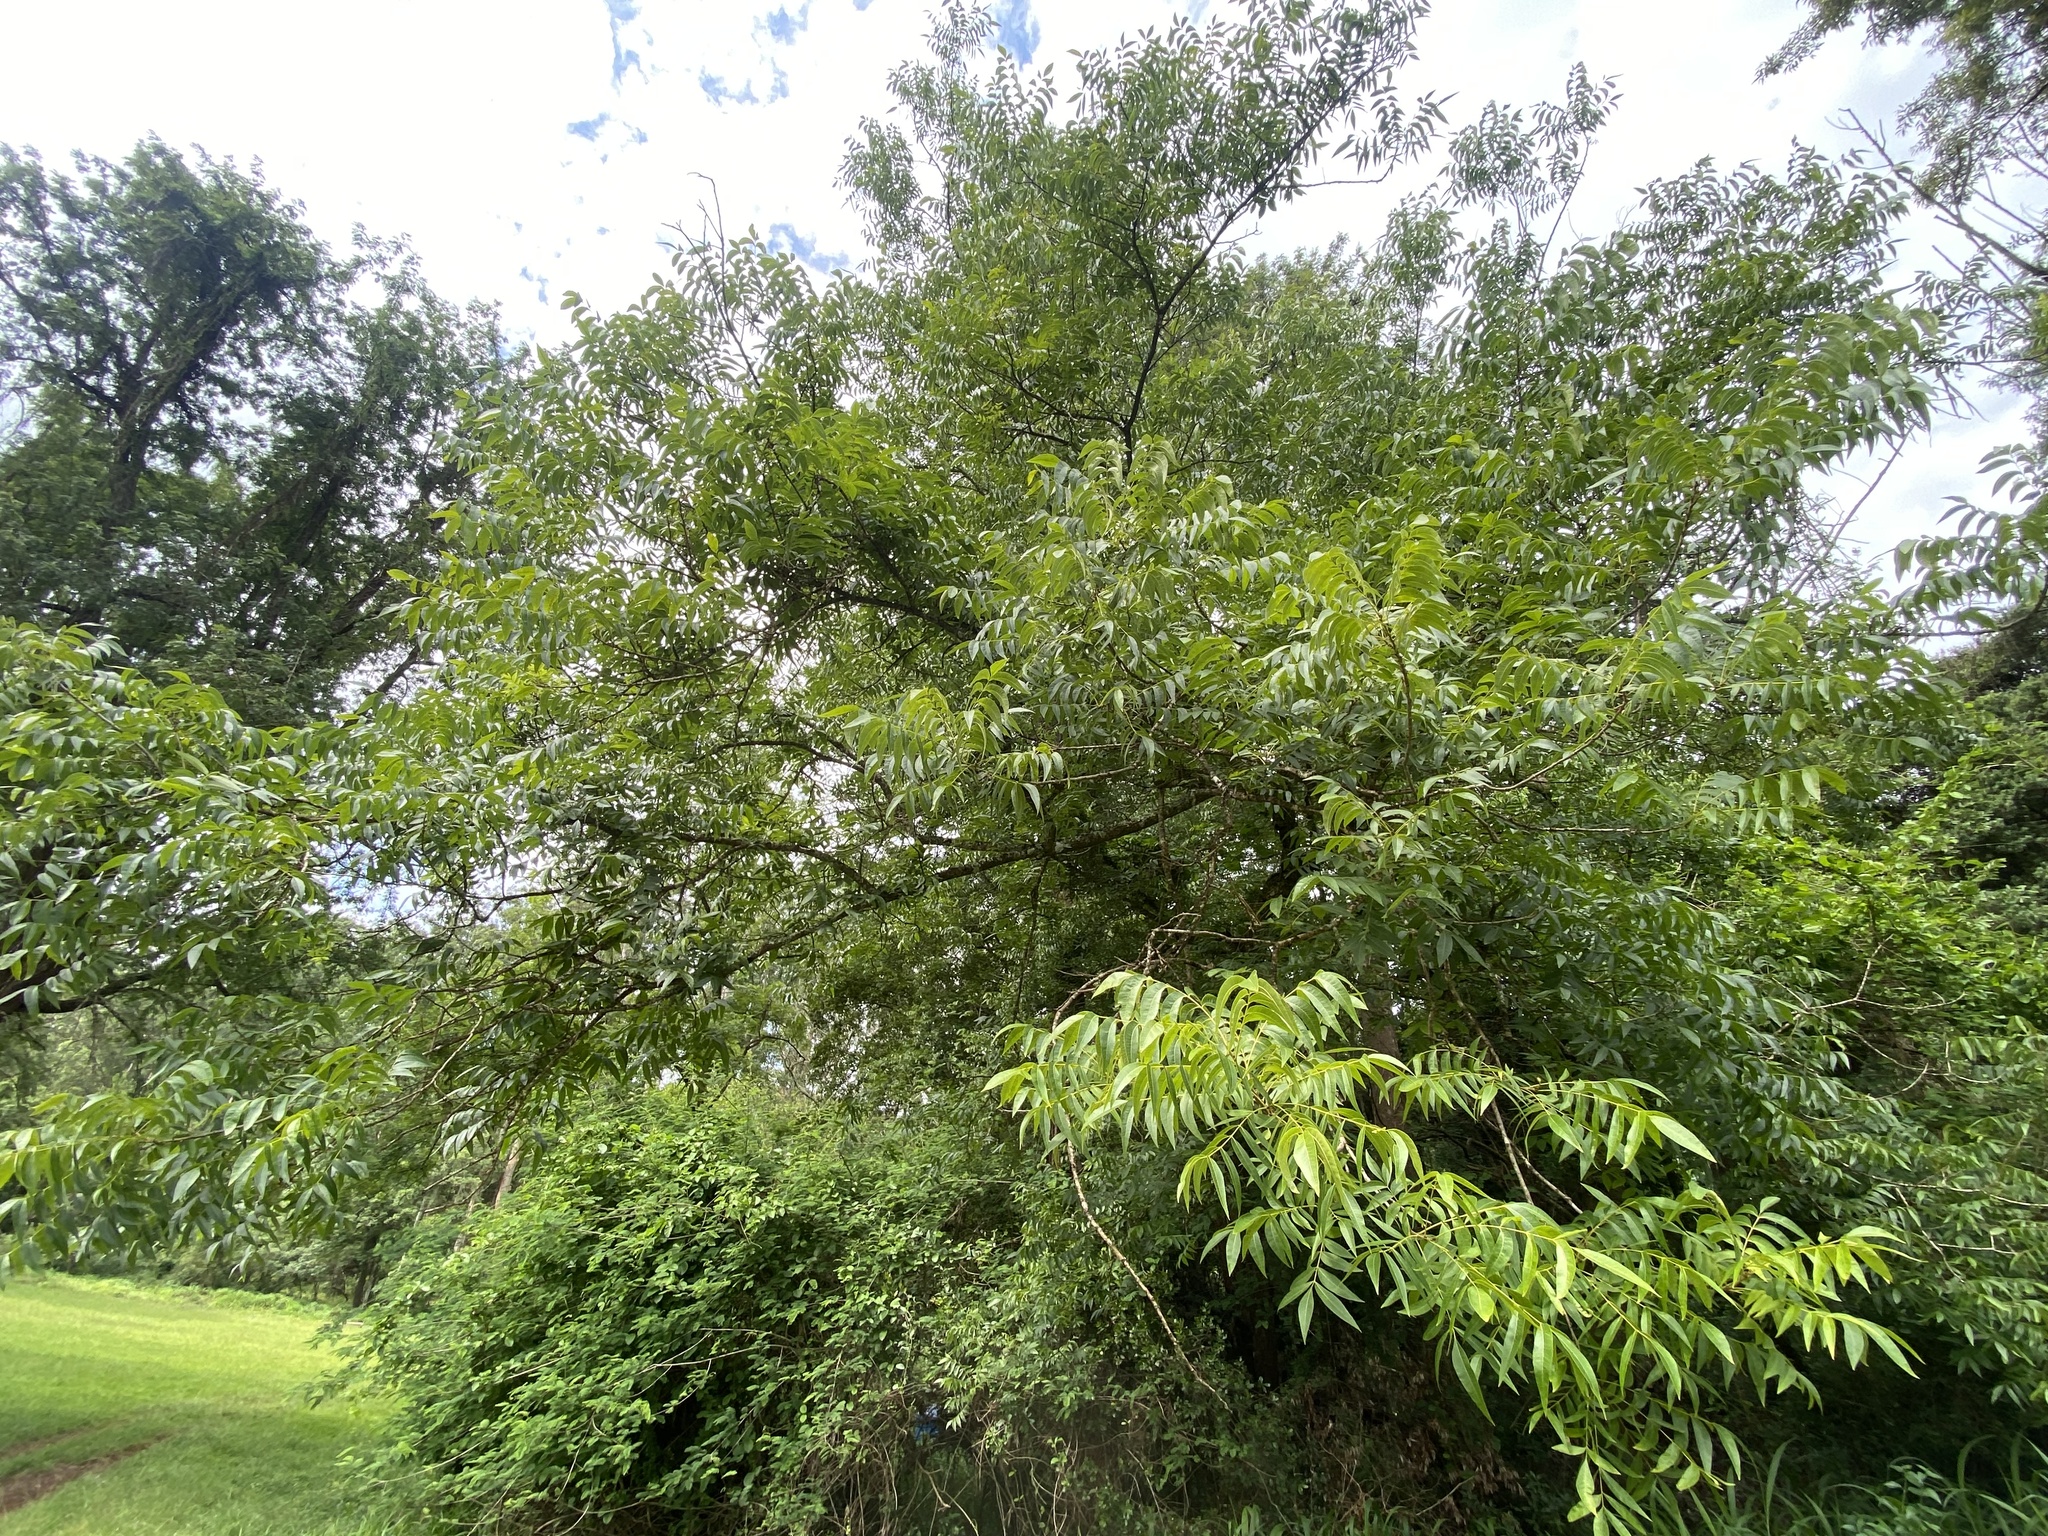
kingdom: Plantae
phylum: Tracheophyta
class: Magnoliopsida
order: Fagales
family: Juglandaceae
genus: Carya
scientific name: Carya illinoinensis
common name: Pecan
